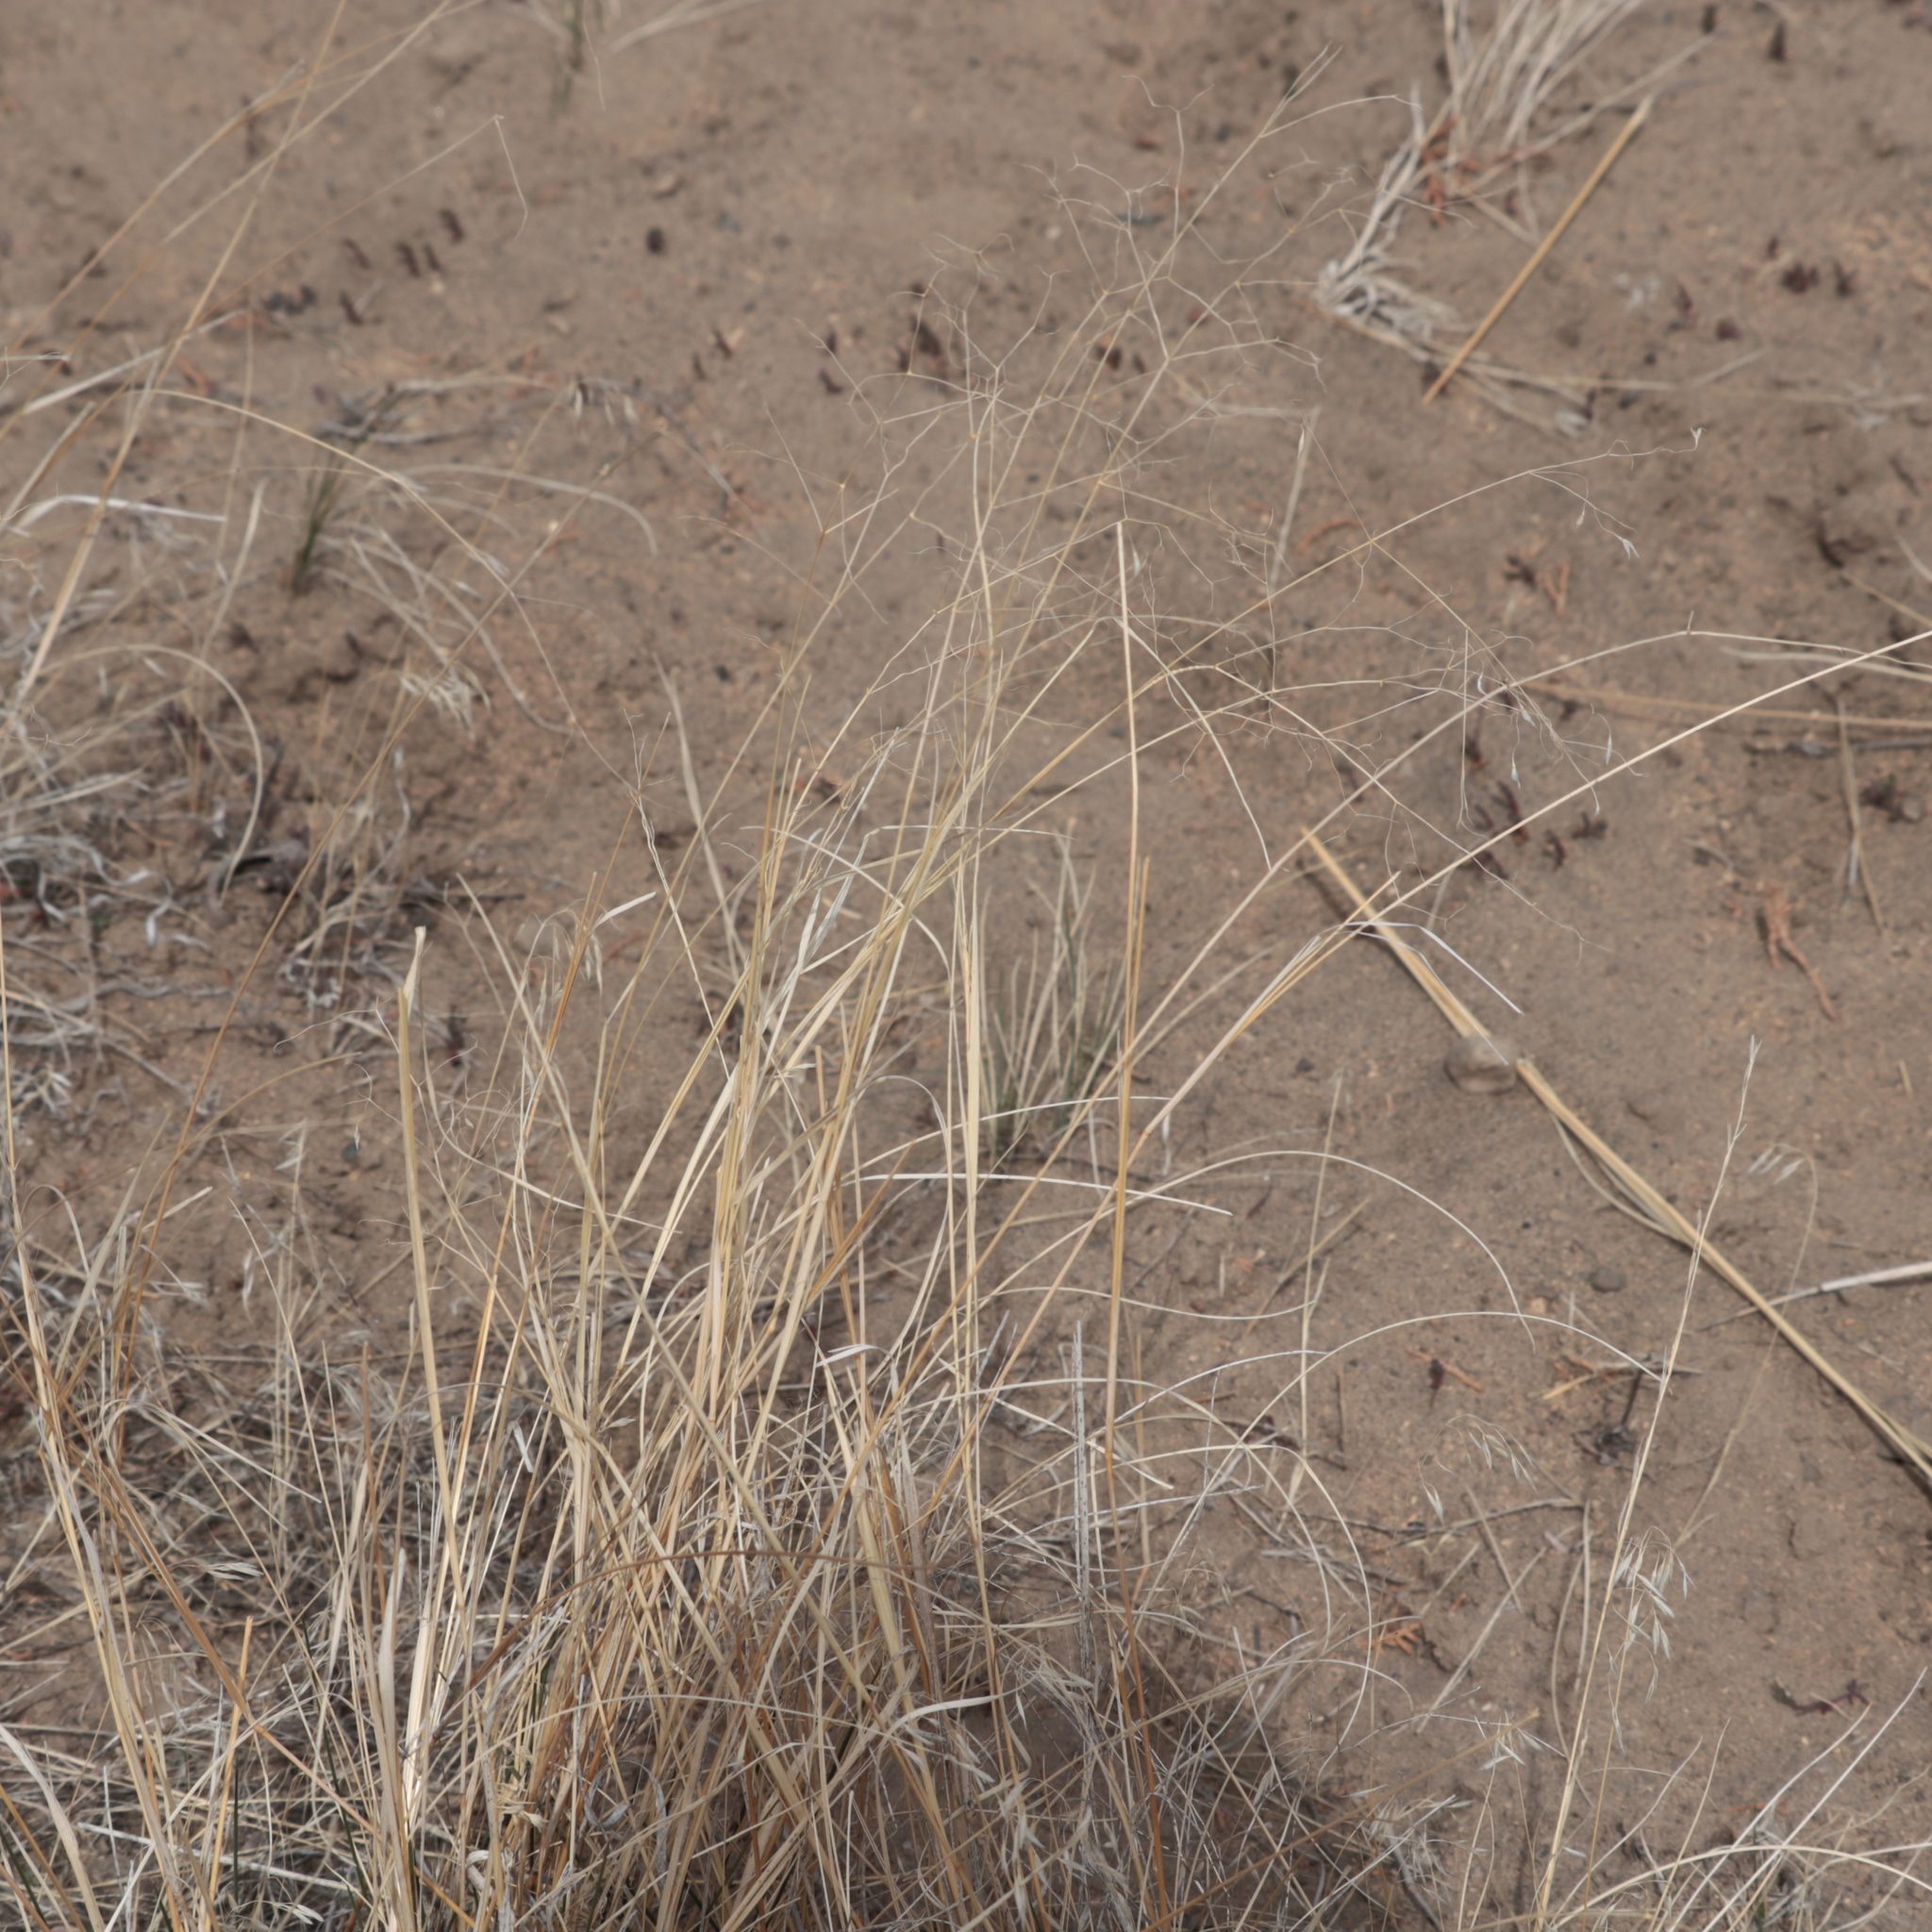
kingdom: Plantae
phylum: Tracheophyta
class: Liliopsida
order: Poales
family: Poaceae
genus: Eriocoma
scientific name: Eriocoma hymenoides
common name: Indian mountain ricegrass
